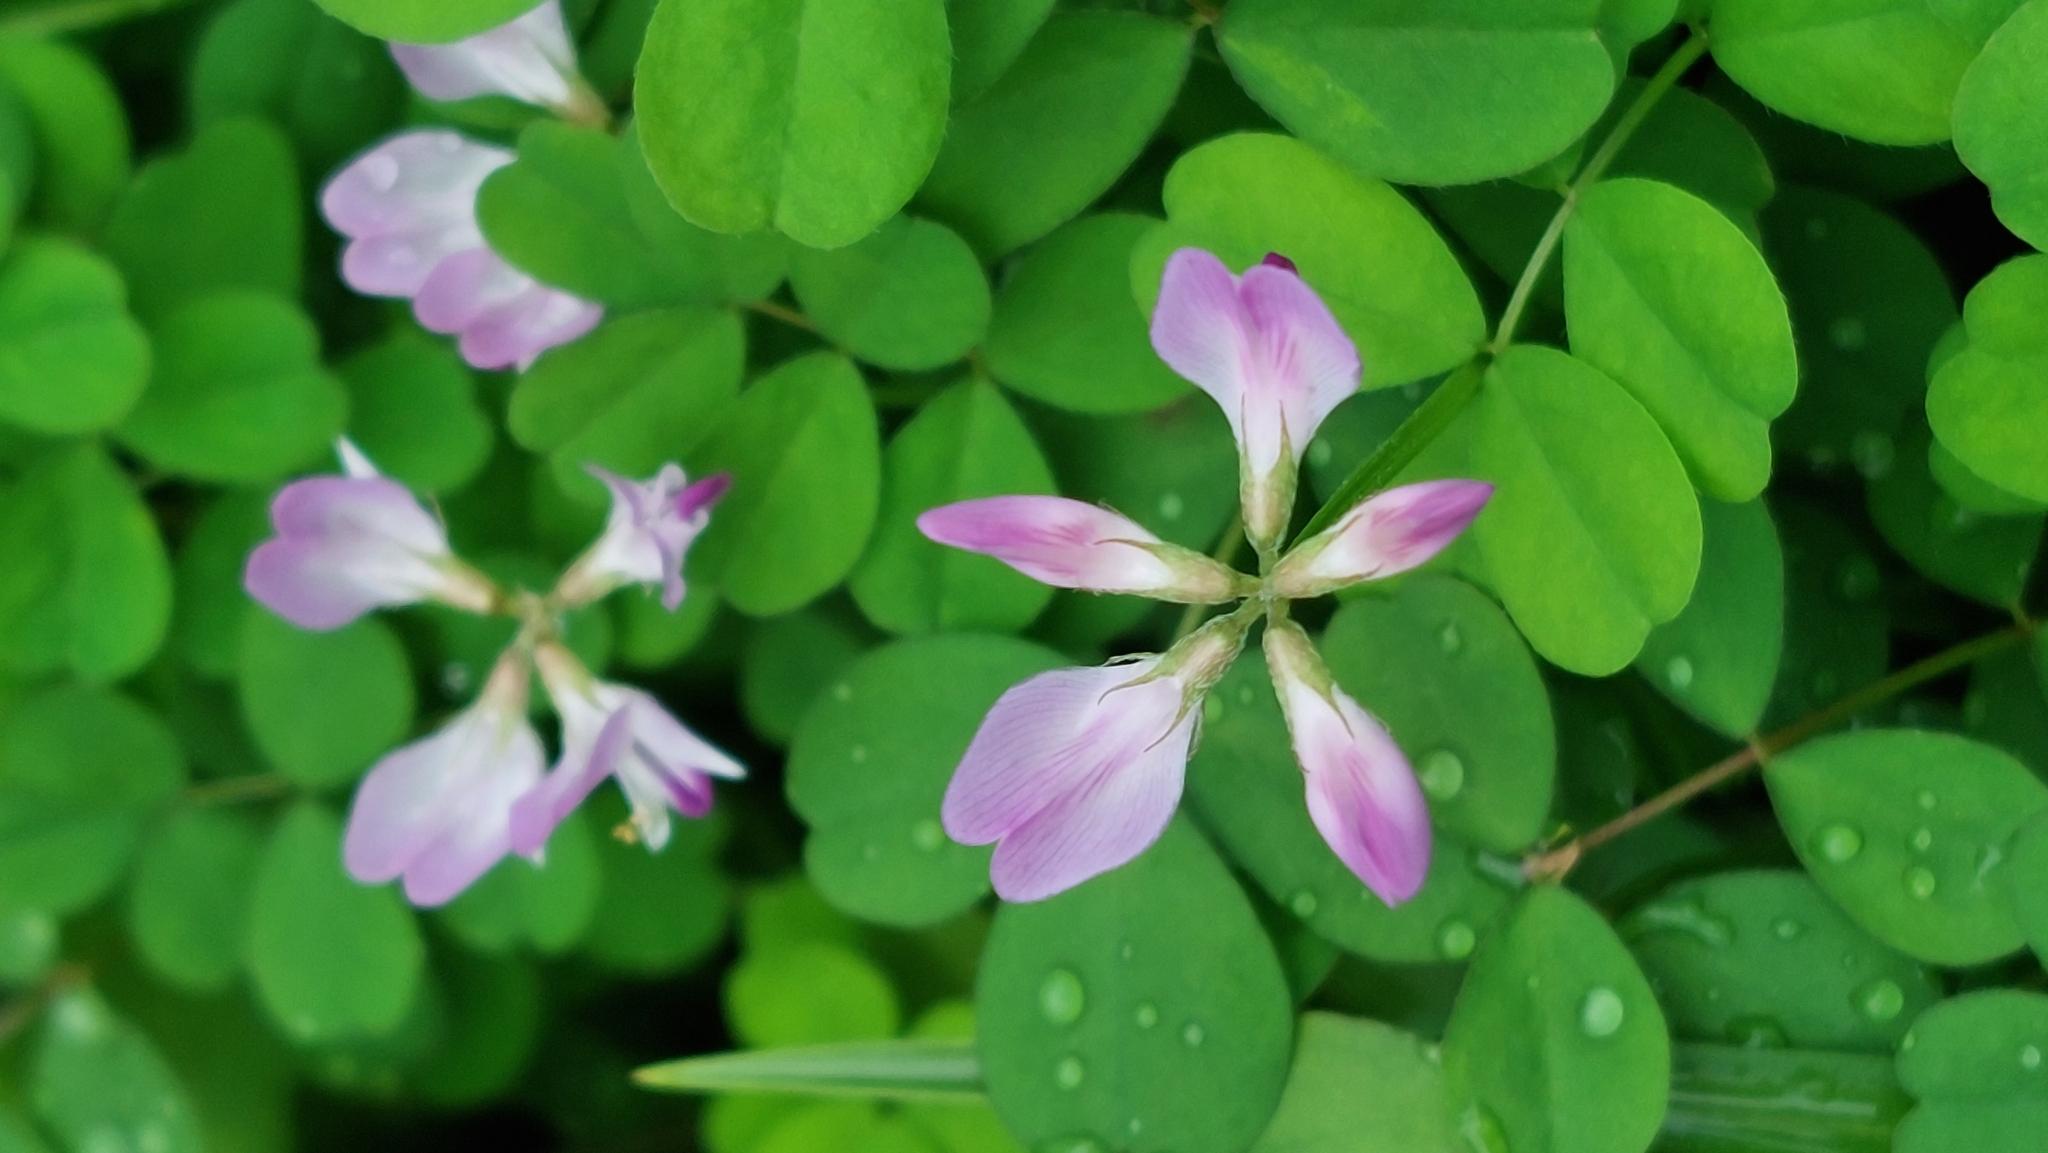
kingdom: Plantae
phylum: Tracheophyta
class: Magnoliopsida
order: Fabales
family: Fabaceae
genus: Astragalus
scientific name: Astragalus sinicus
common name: Chinese milk-vetch
